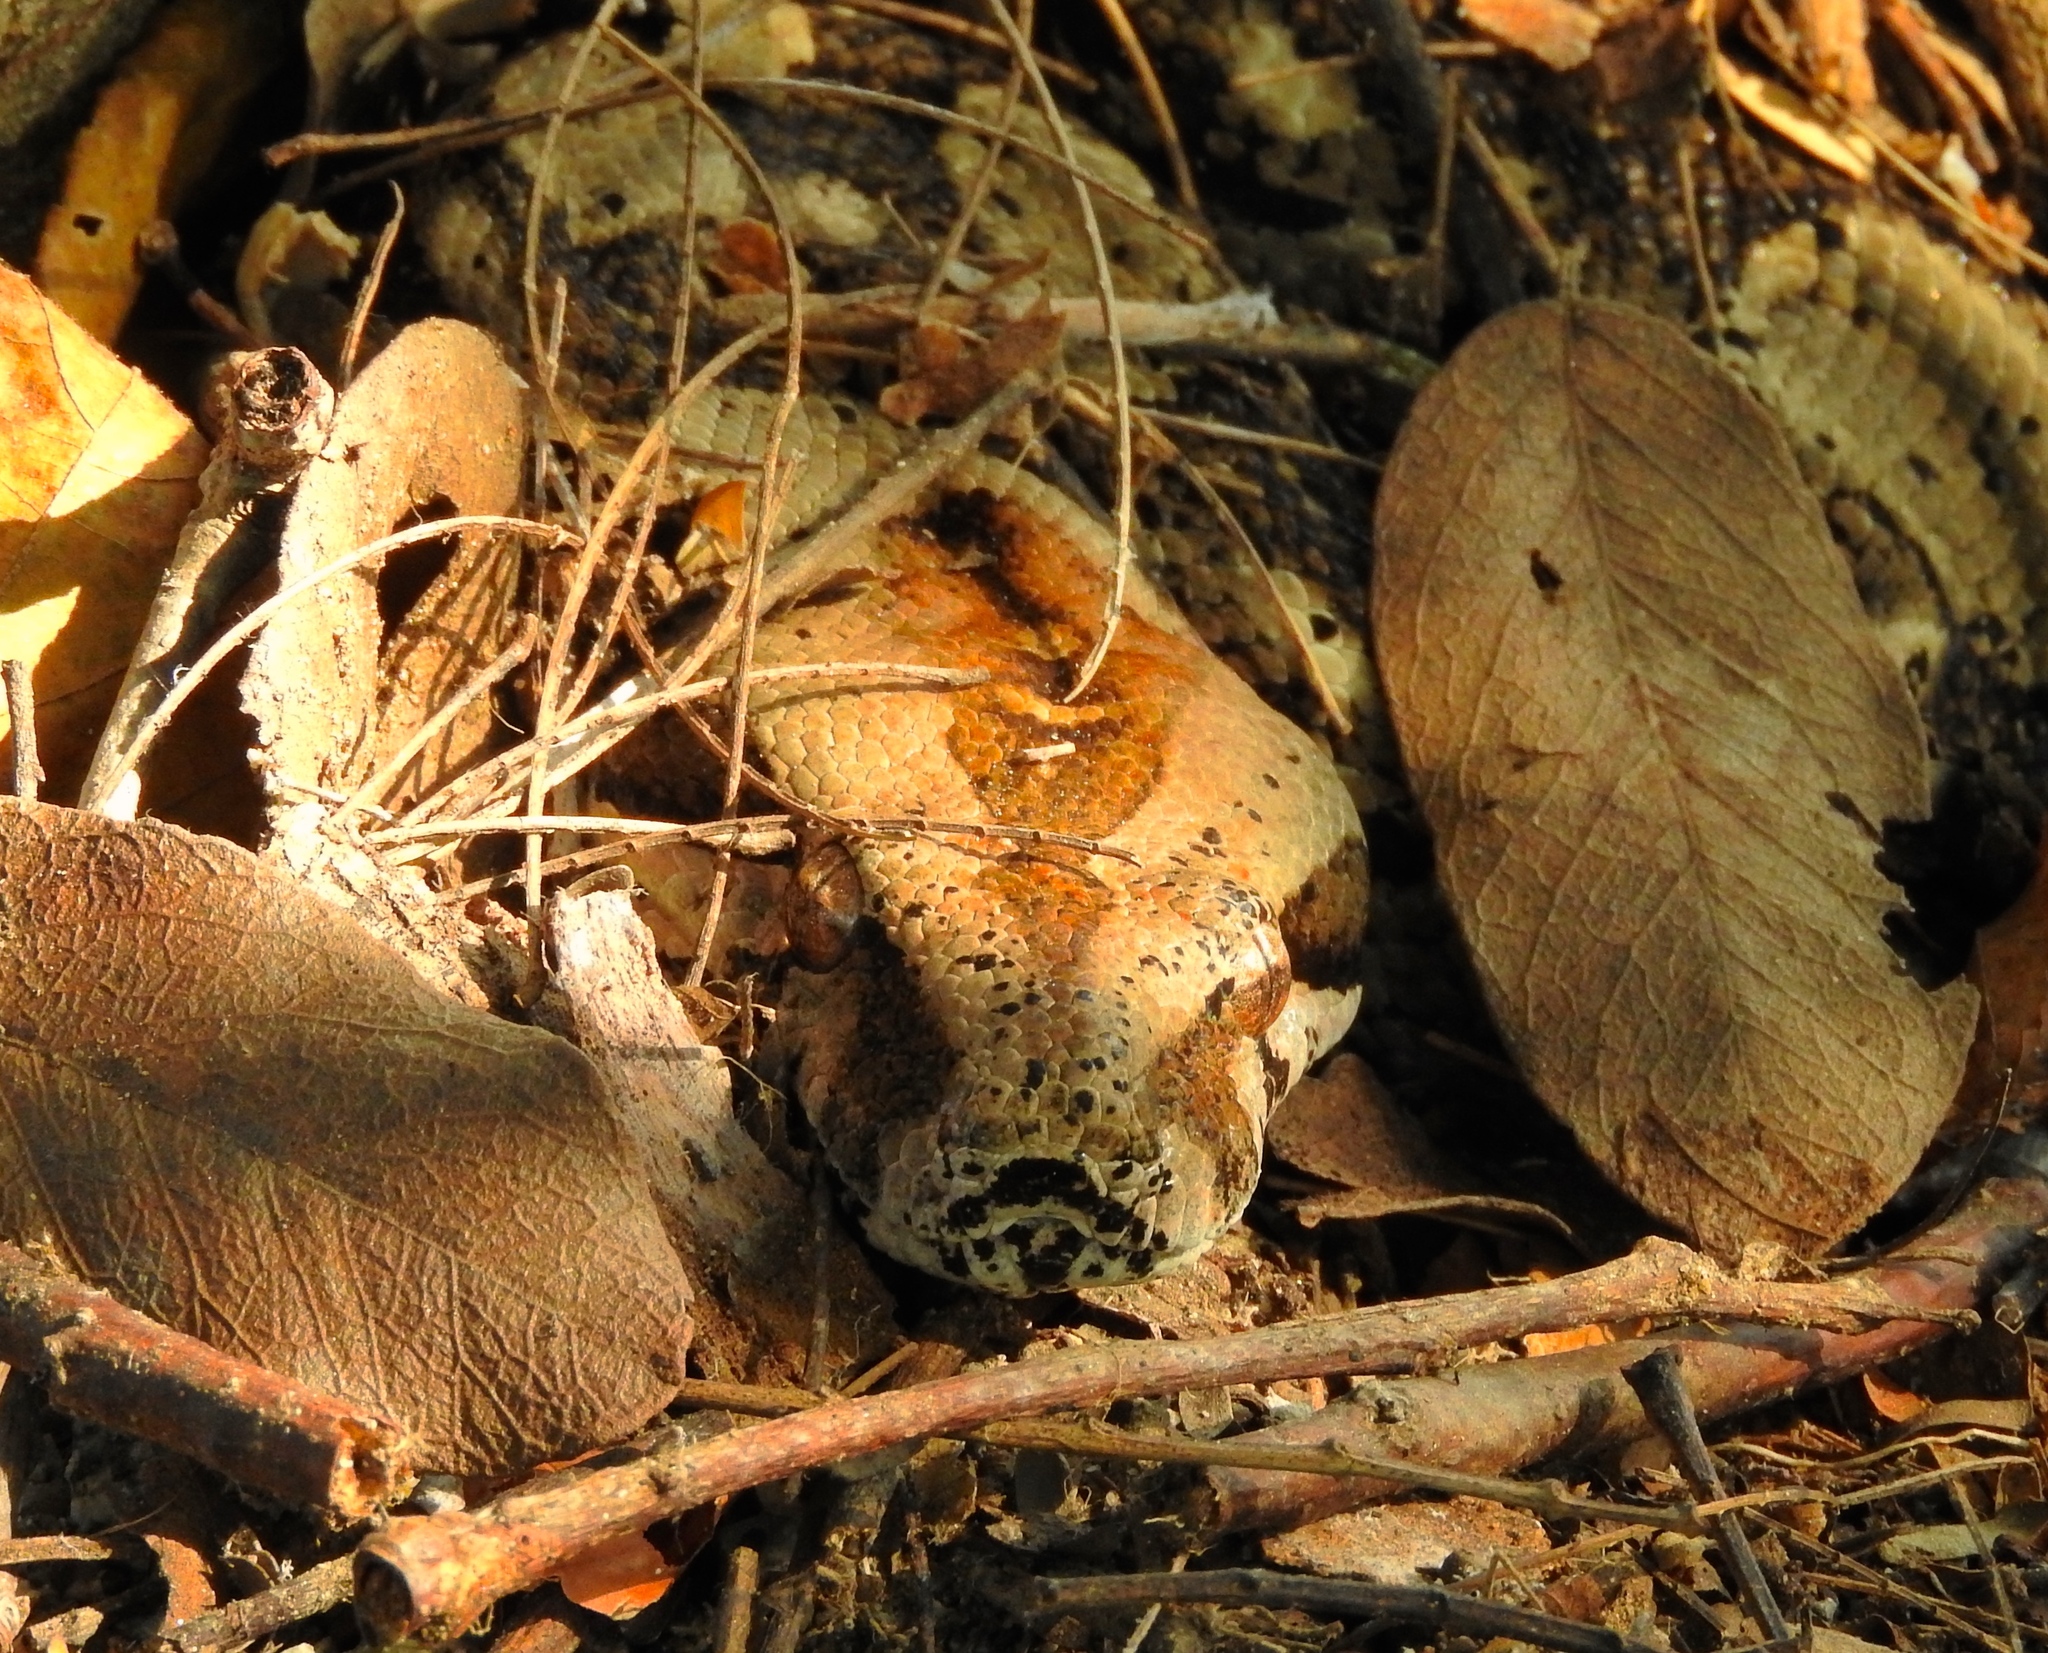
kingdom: Animalia
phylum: Chordata
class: Squamata
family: Boidae
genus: Boa
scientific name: Boa
